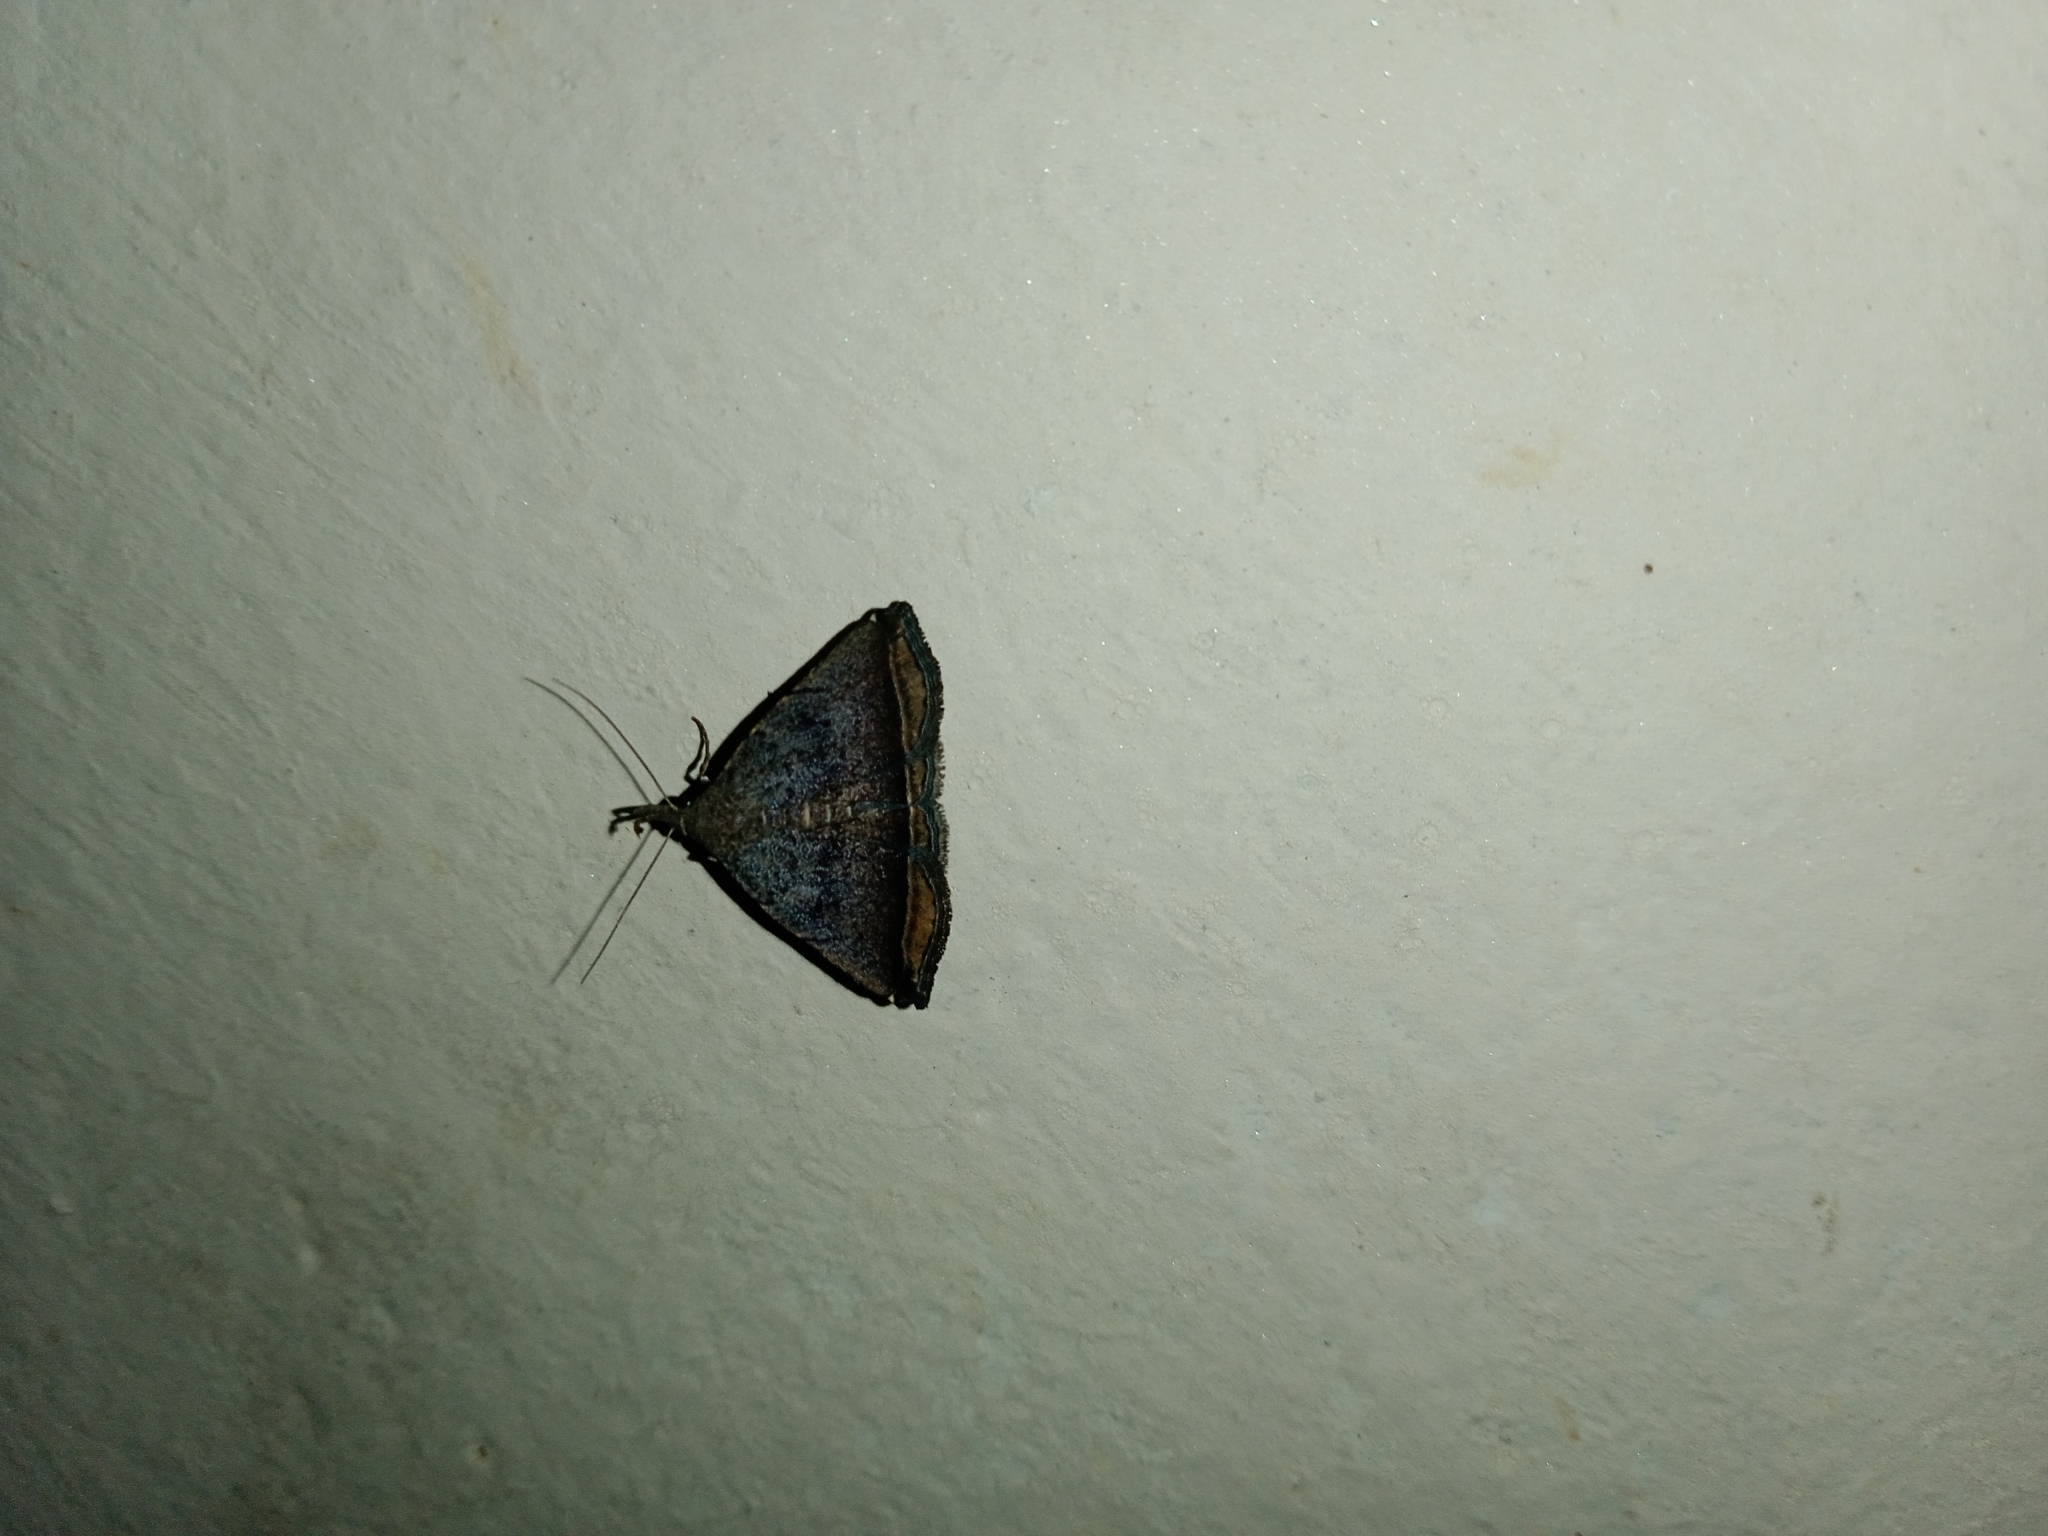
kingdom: Animalia
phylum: Arthropoda
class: Insecta
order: Lepidoptera
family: Erebidae
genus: Lysimelia
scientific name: Lysimelia alstoni
